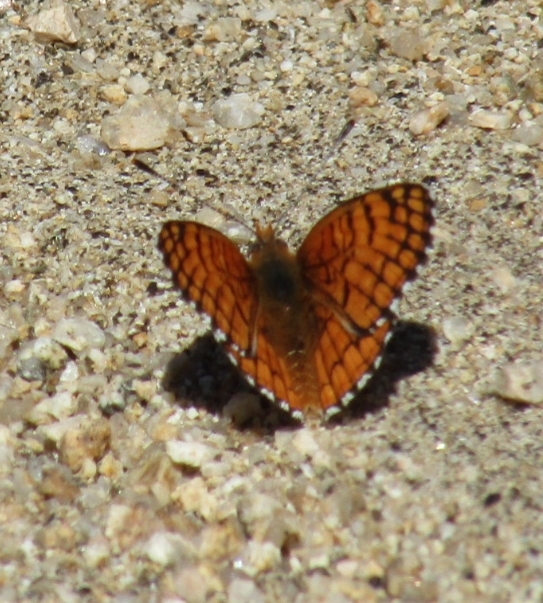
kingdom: Animalia
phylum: Arthropoda
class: Insecta
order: Lepidoptera
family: Nymphalidae
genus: Chlosyne
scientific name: Chlosyne acastus
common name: Sagebrush checkerspot
